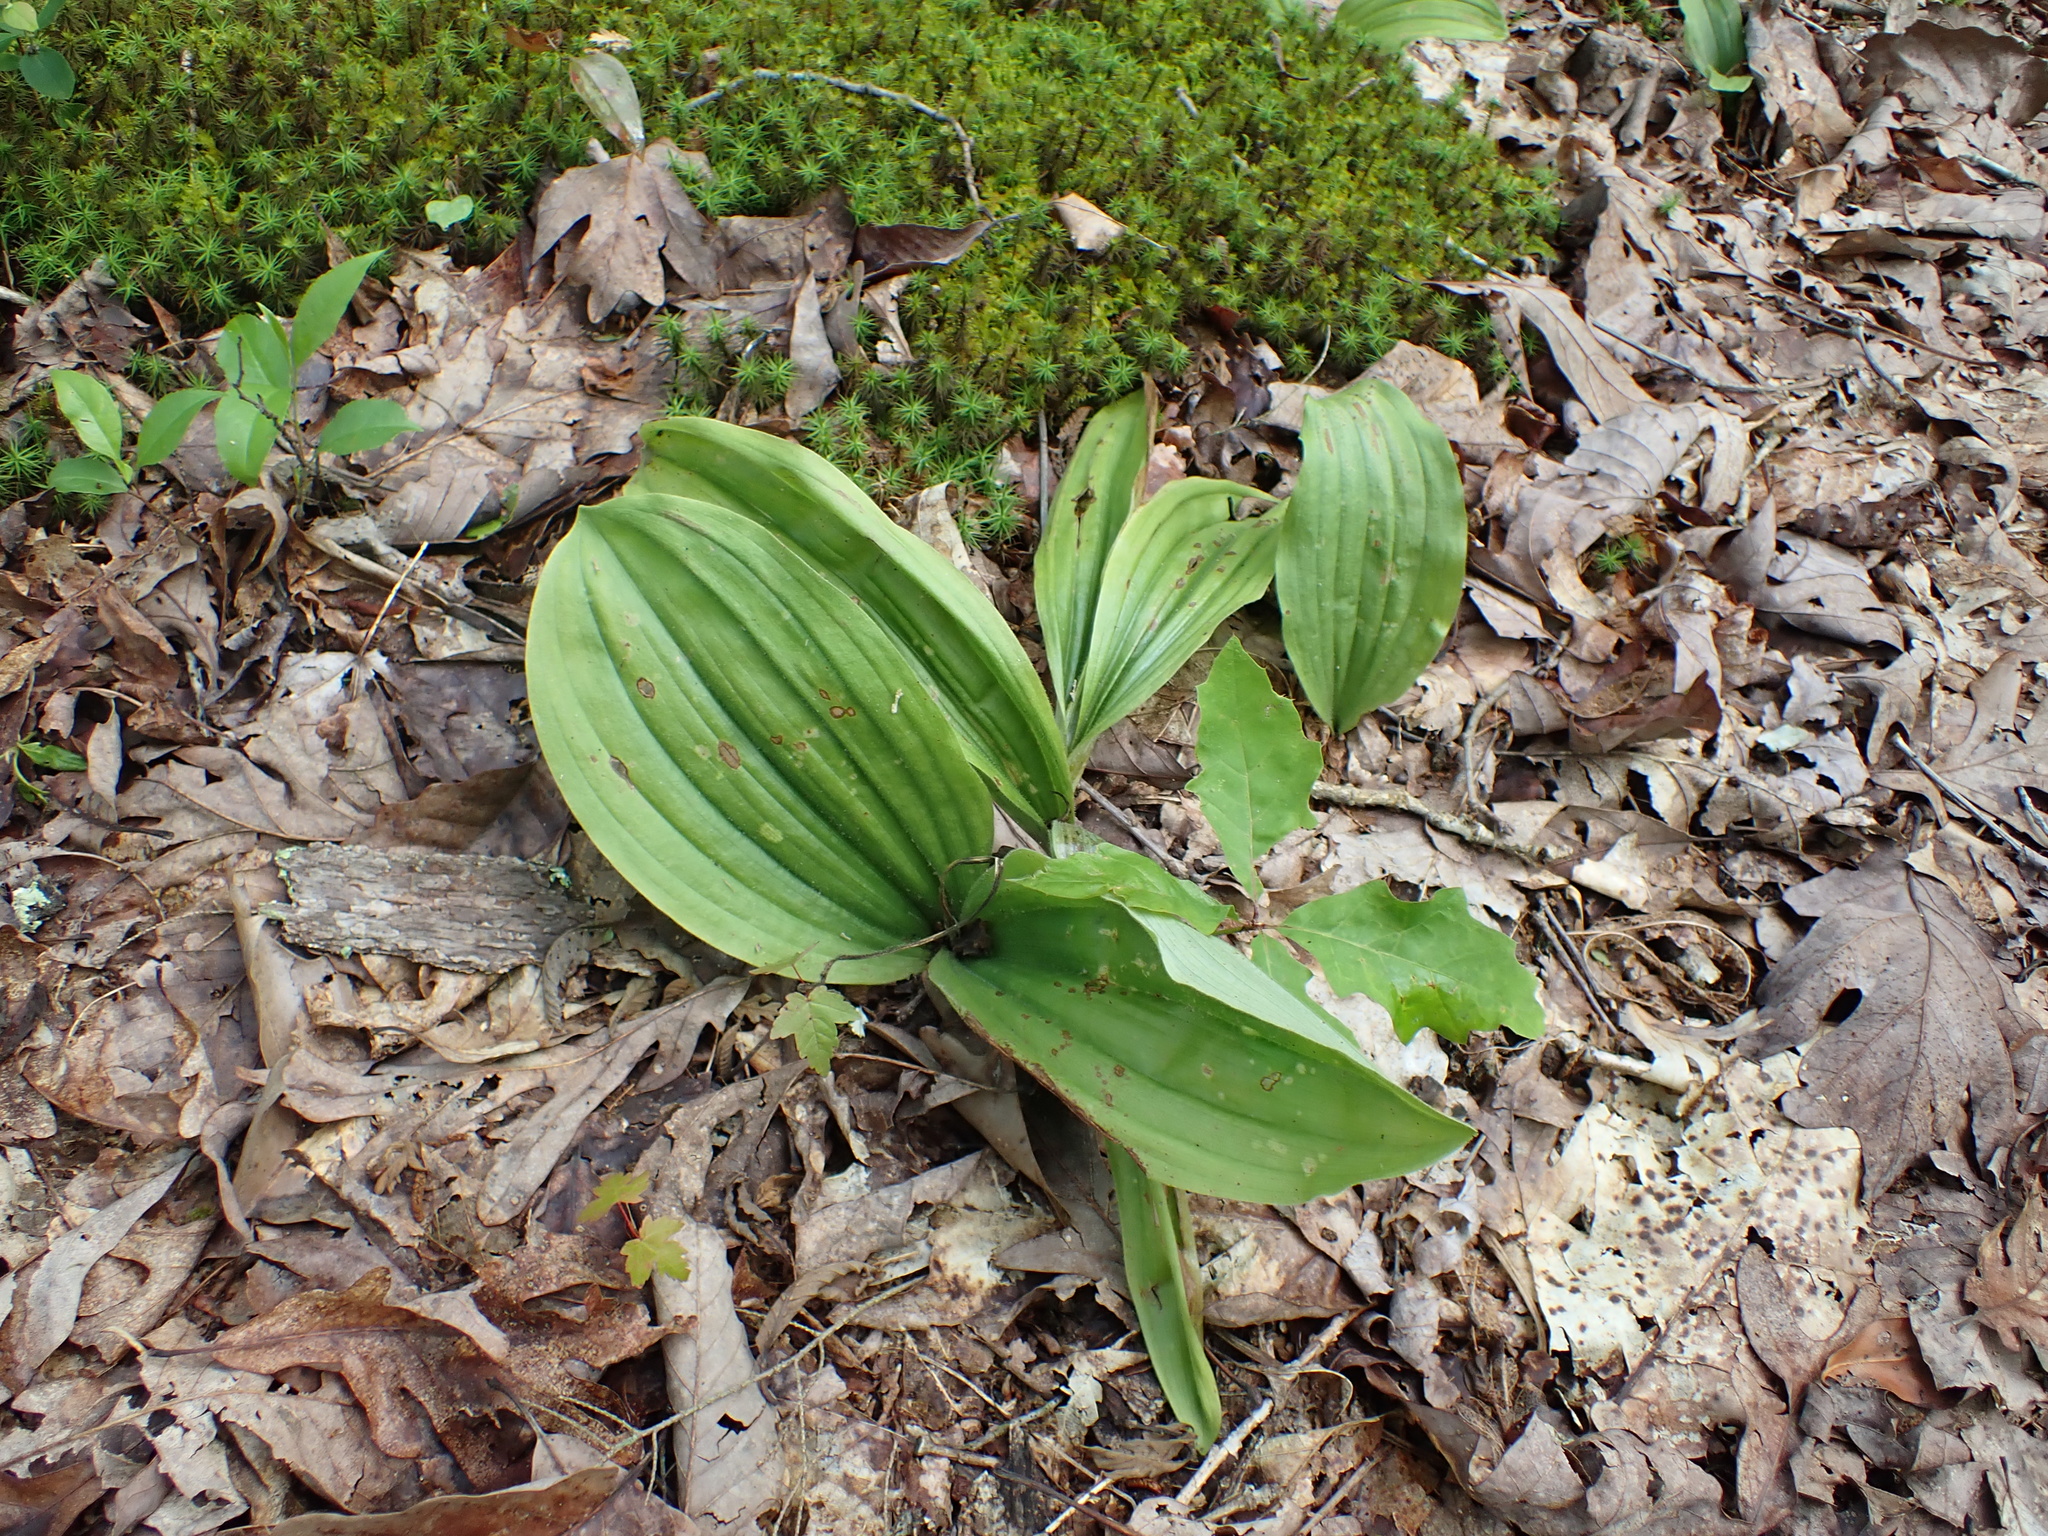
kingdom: Plantae
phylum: Tracheophyta
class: Liliopsida
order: Asparagales
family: Orchidaceae
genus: Cypripedium
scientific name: Cypripedium acaule
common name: Pink lady's-slipper
